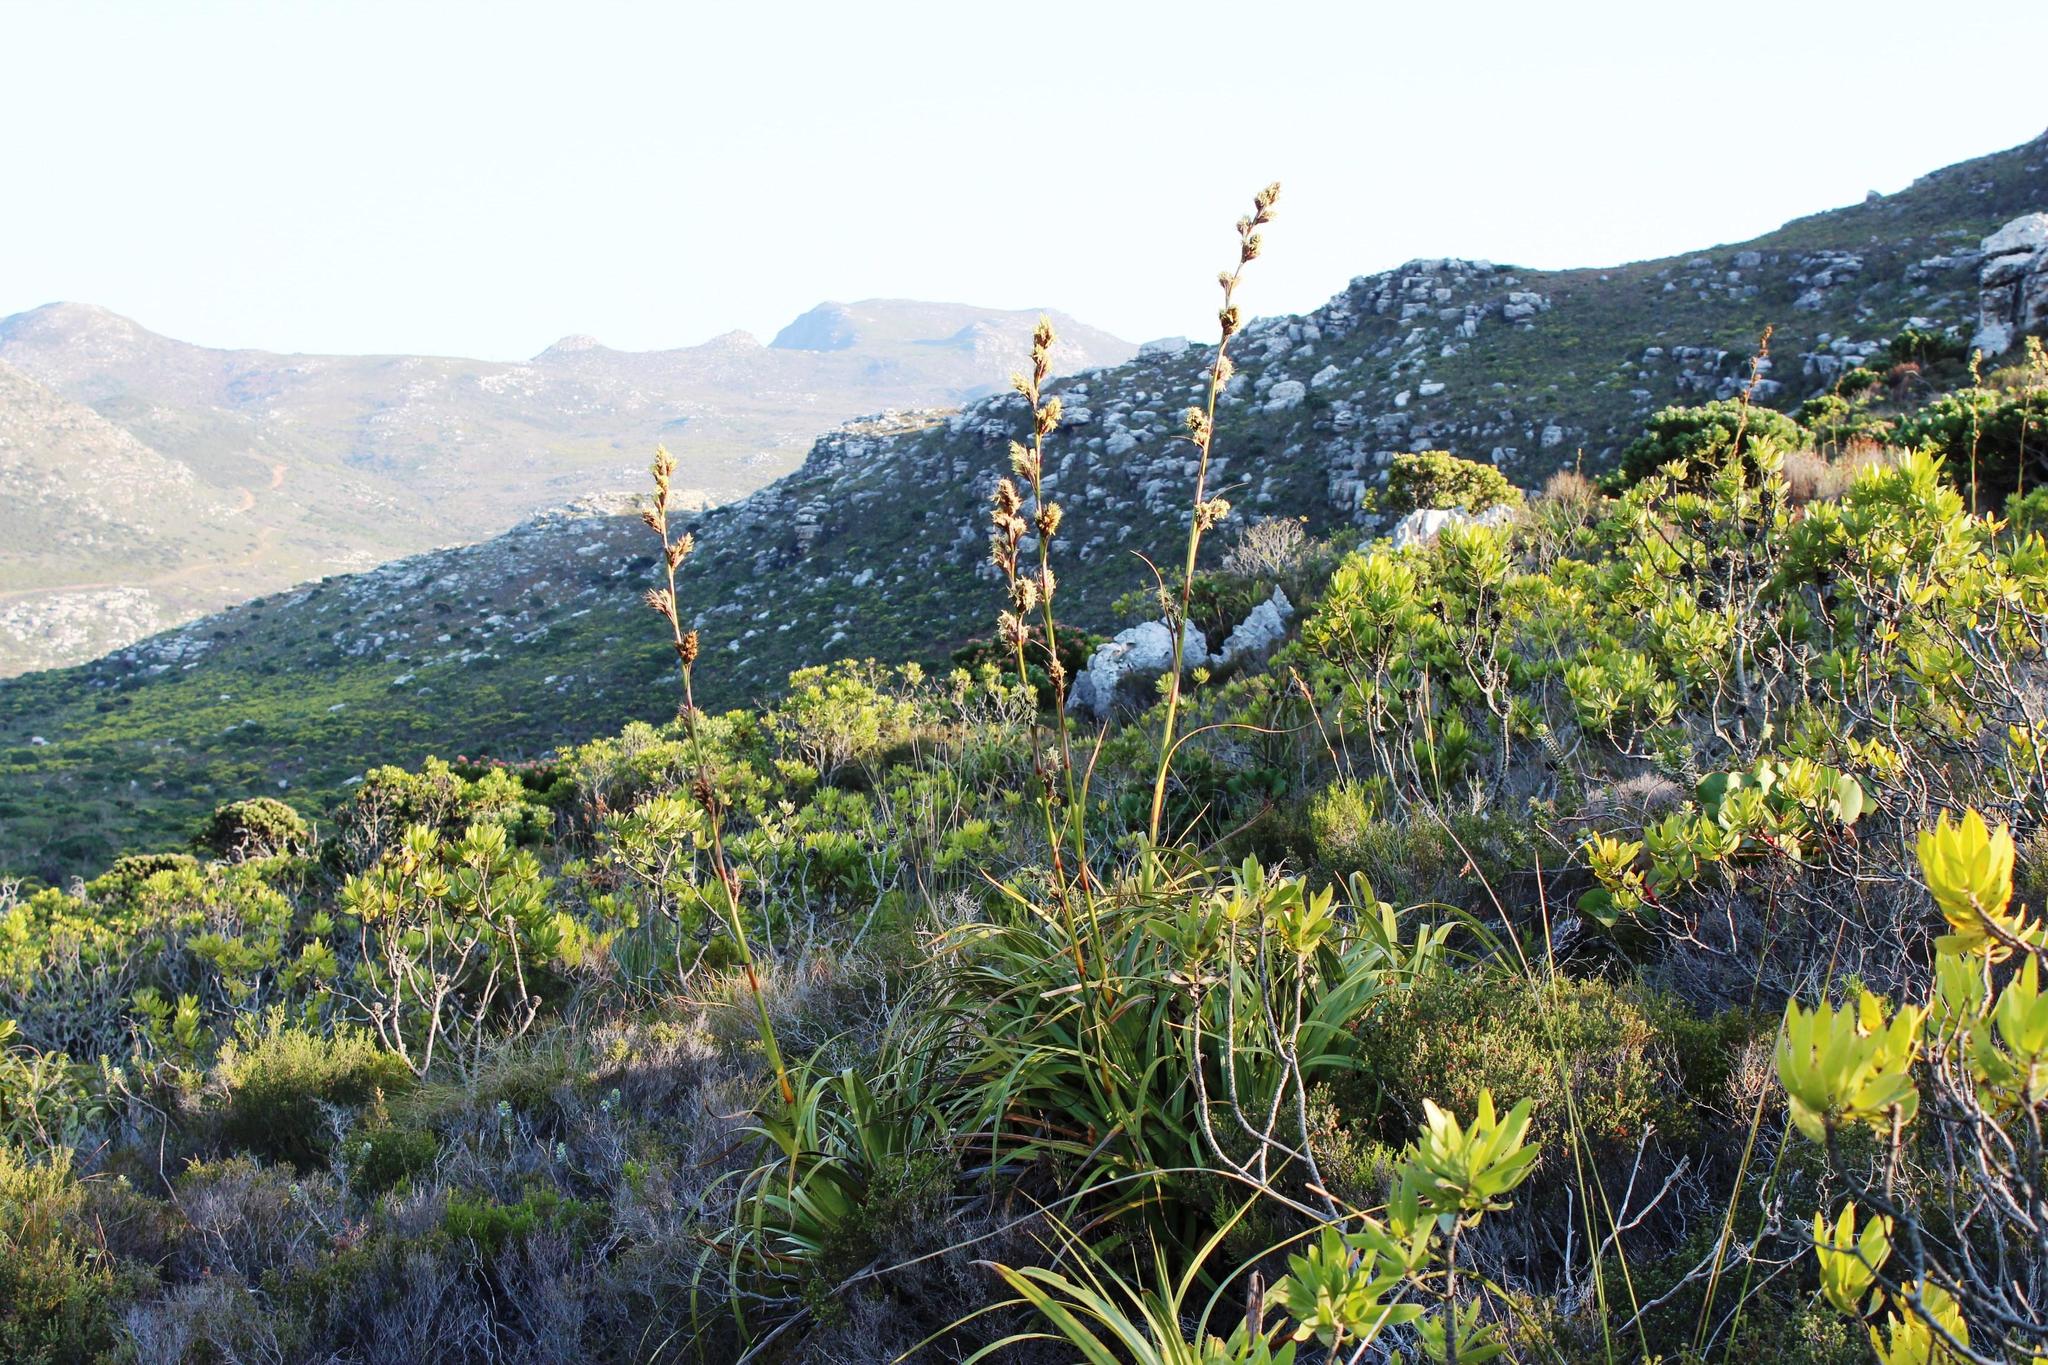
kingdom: Plantae
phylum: Tracheophyta
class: Liliopsida
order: Poales
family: Cyperaceae
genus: Tetraria
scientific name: Tetraria thermalis
